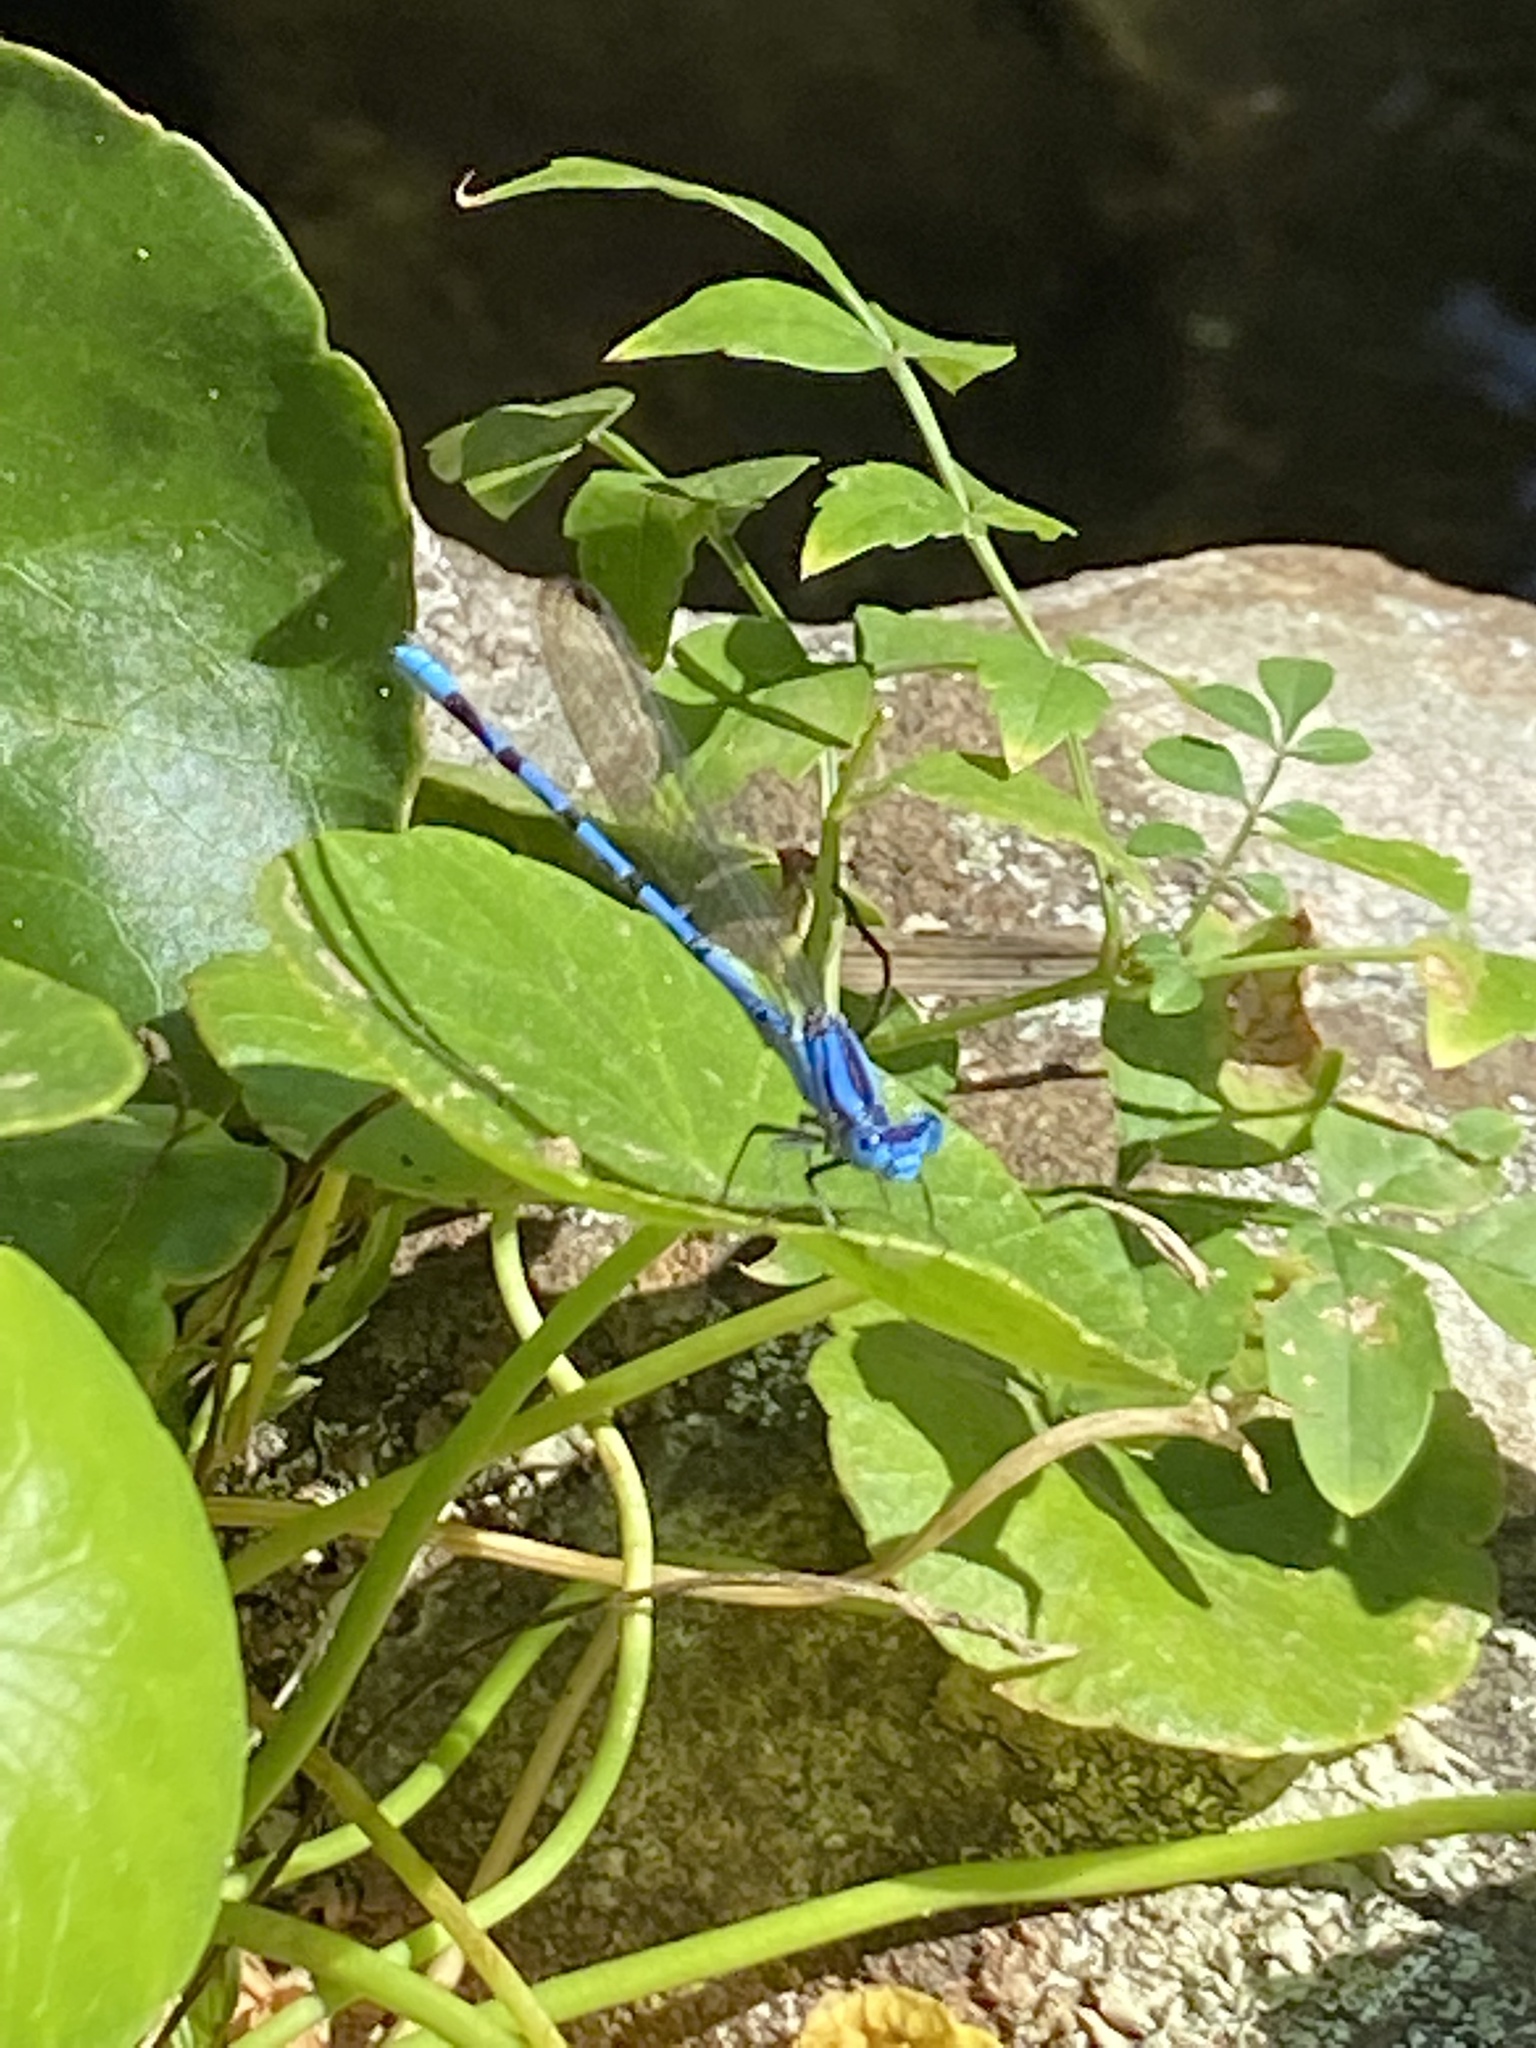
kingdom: Animalia
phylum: Arthropoda
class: Insecta
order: Odonata
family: Coenagrionidae
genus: Argia
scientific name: Argia funebris
